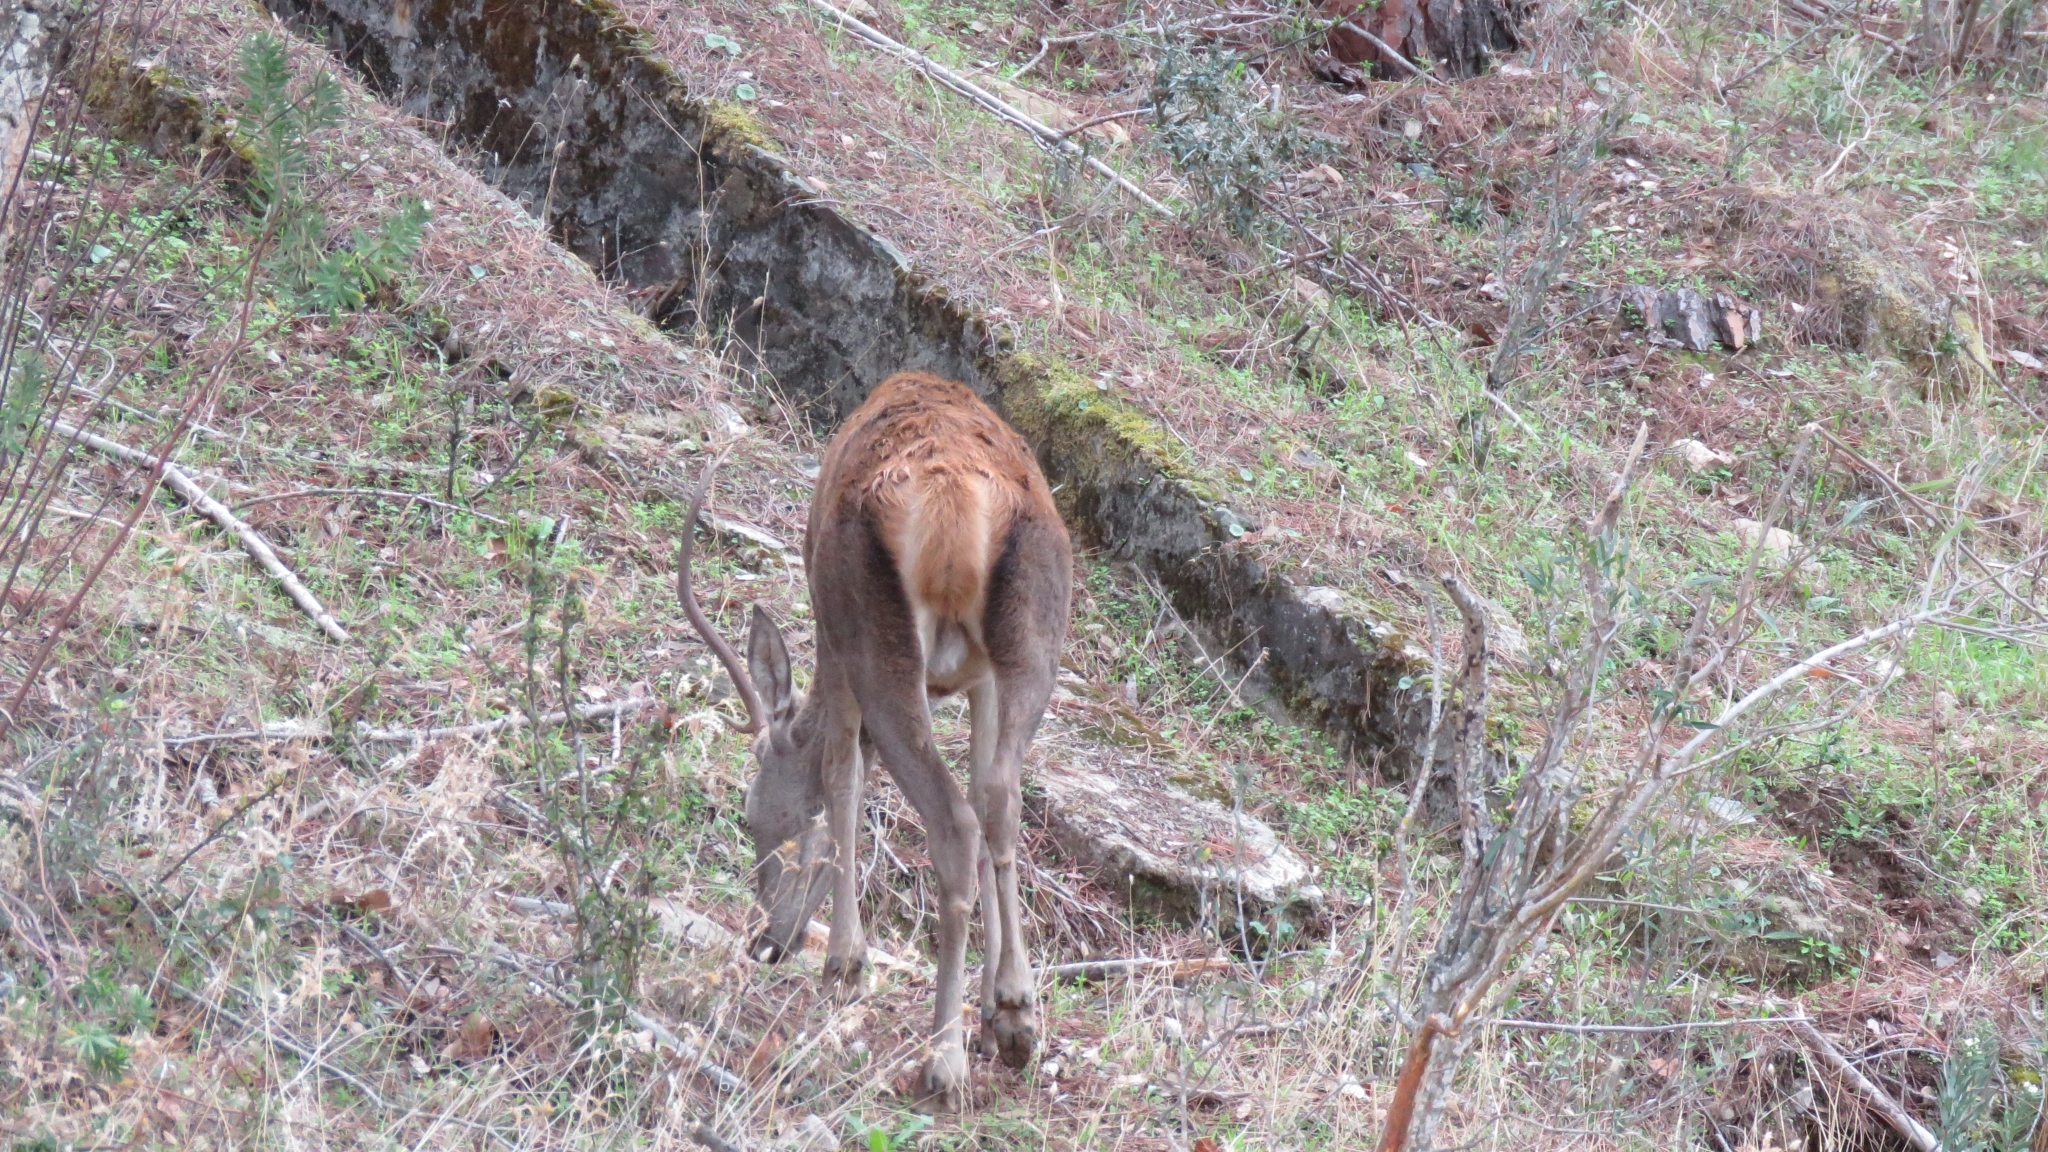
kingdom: Animalia
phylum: Chordata
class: Mammalia
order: Artiodactyla
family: Cervidae
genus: Cervus
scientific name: Cervus elaphus
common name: Red deer
